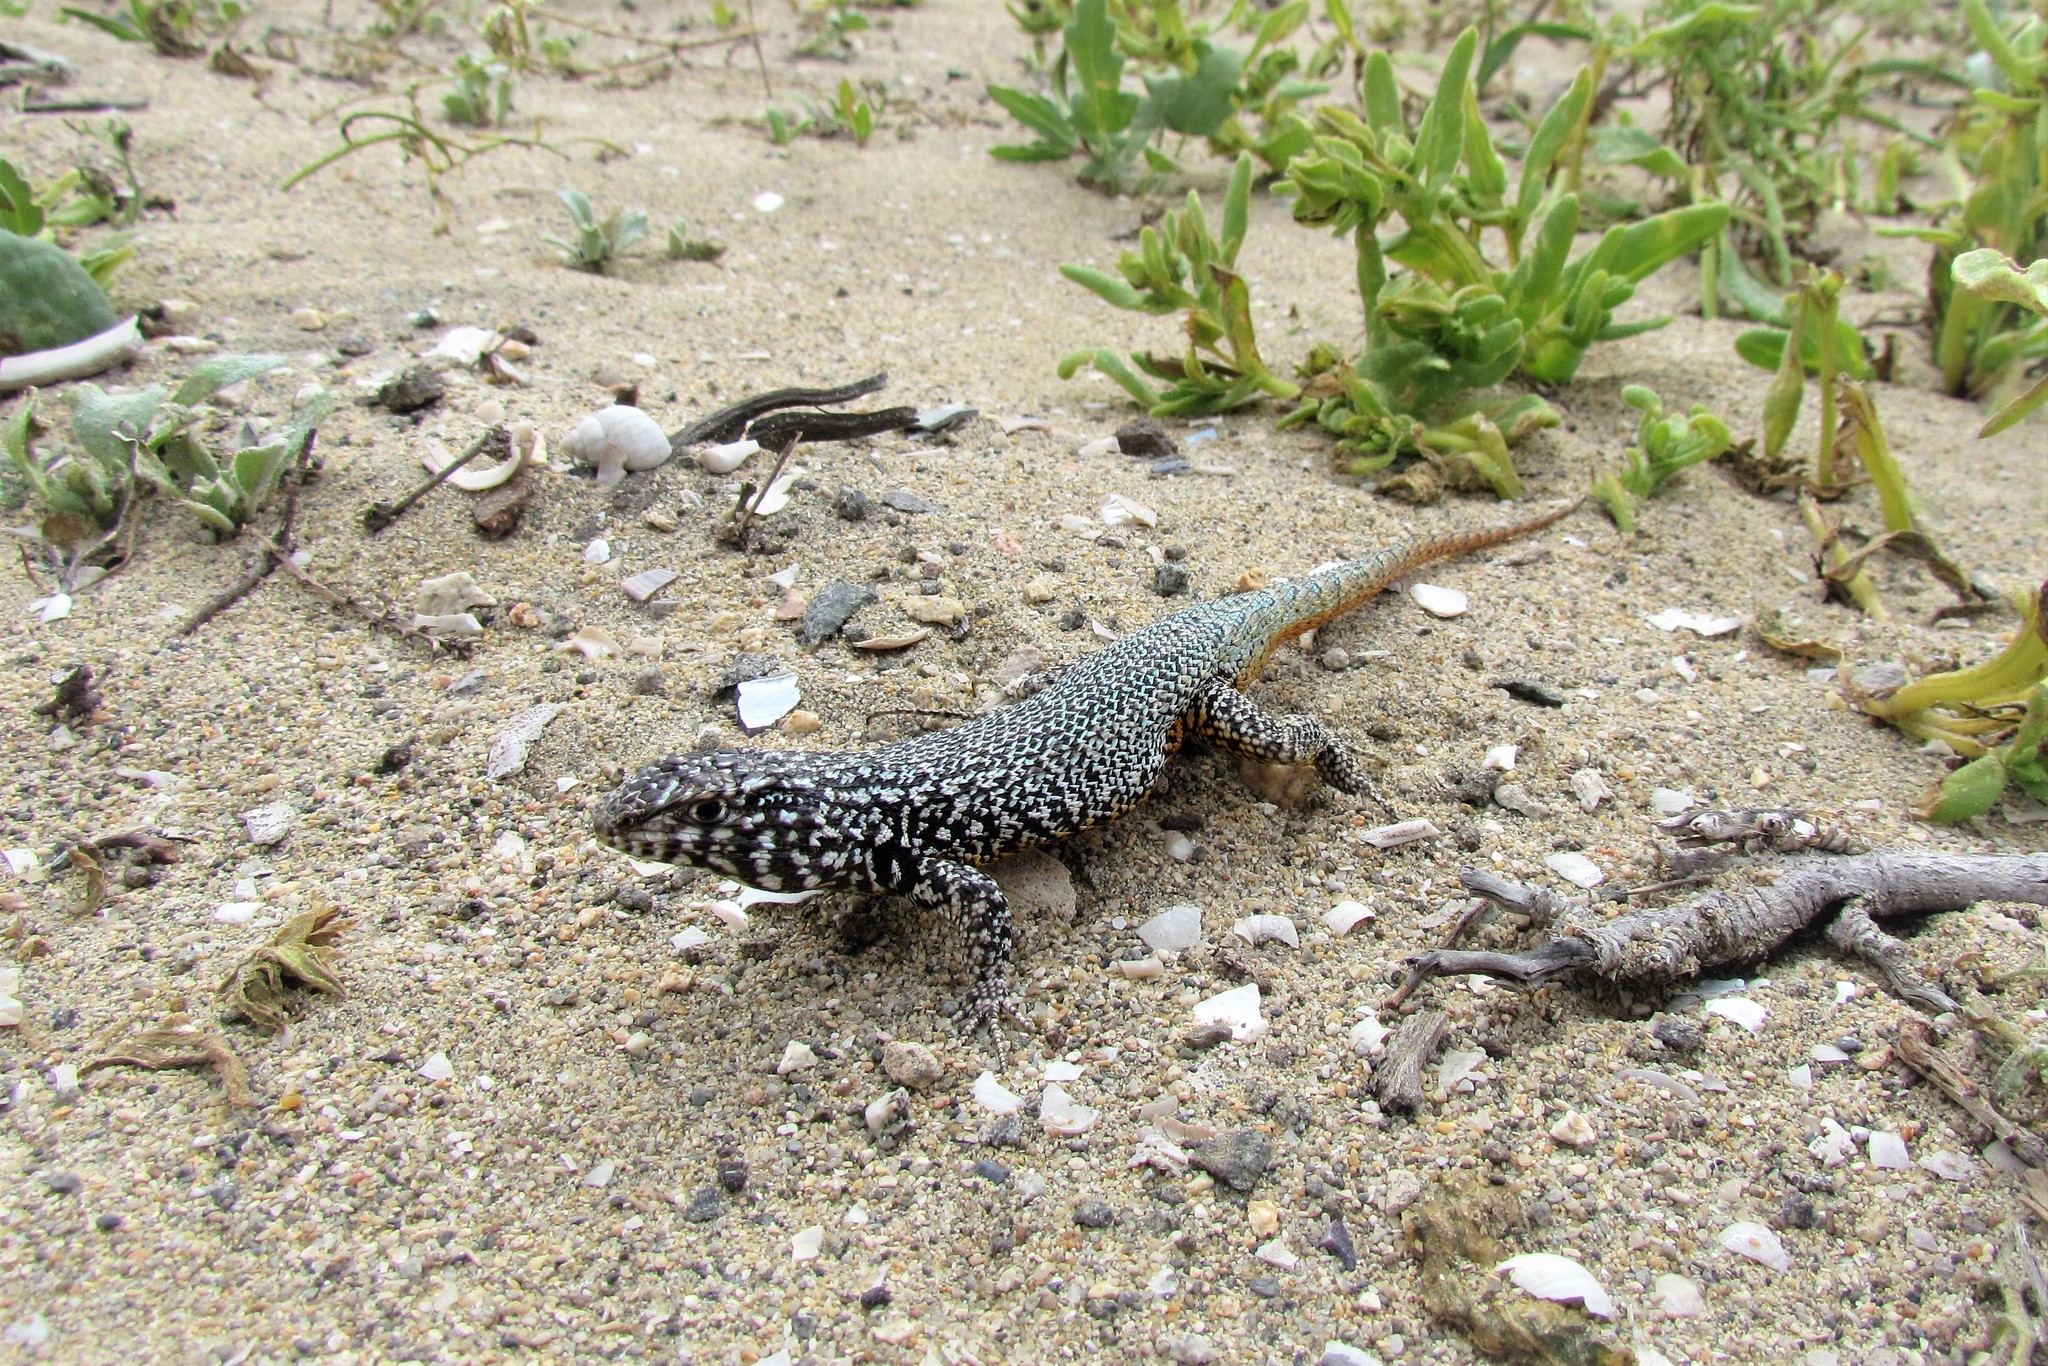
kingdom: Animalia
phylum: Chordata
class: Squamata
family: Liolaemidae
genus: Liolaemus
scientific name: Liolaemus silvai
